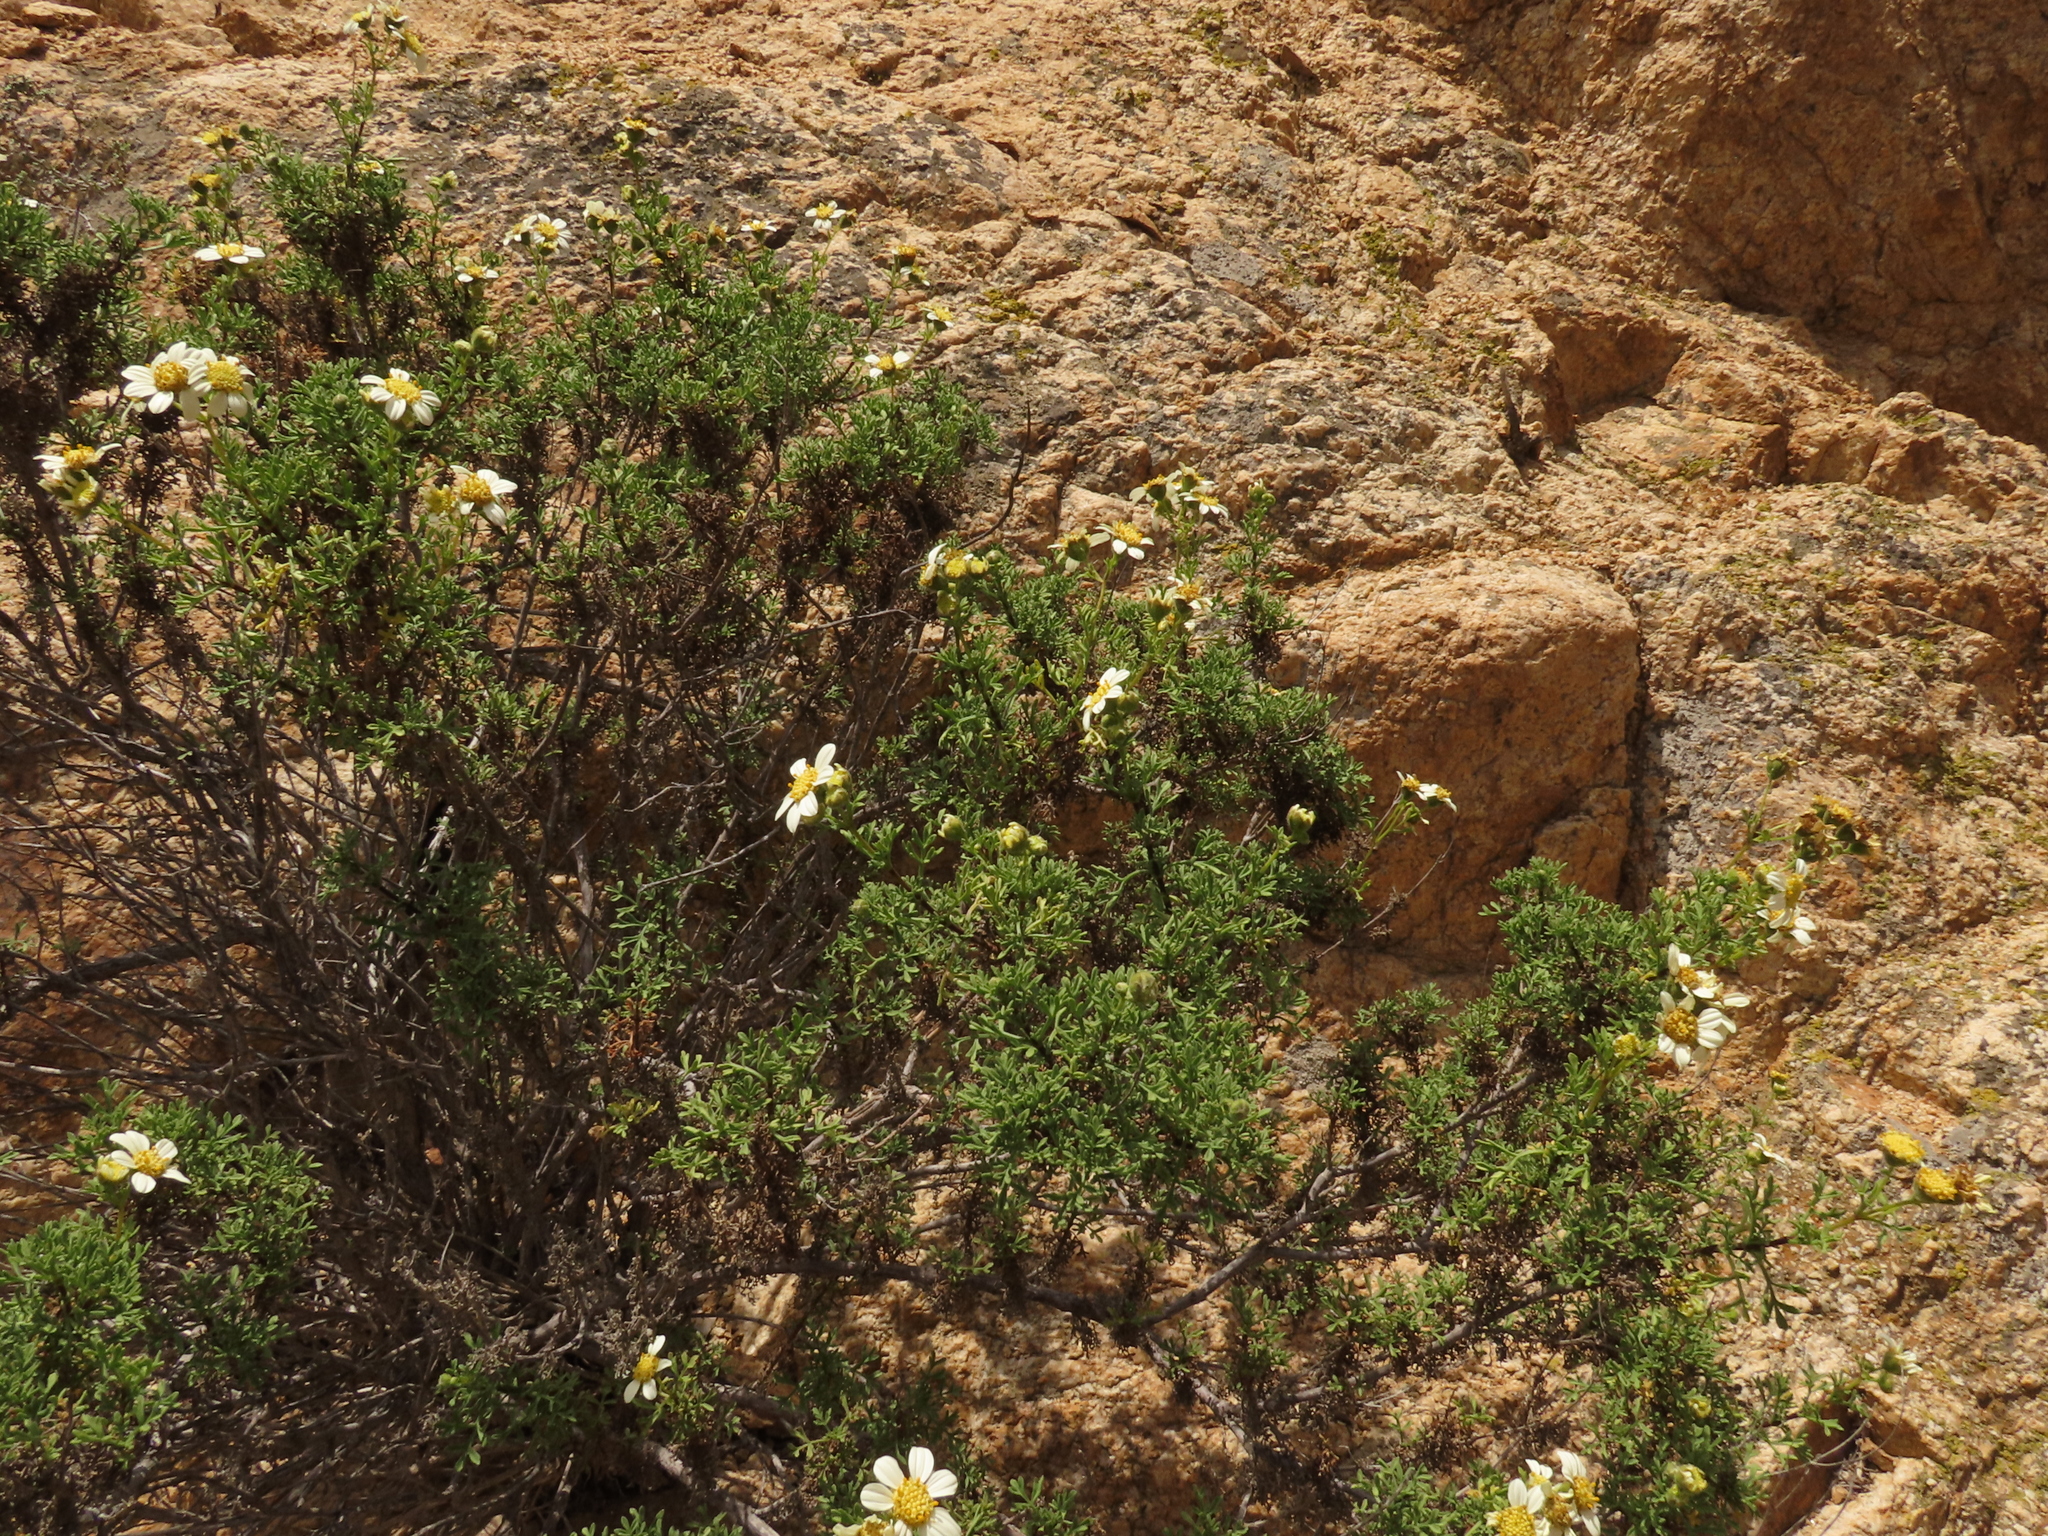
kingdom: Plantae
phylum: Tracheophyta
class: Magnoliopsida
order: Asterales
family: Asteraceae
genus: Bahia
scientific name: Bahia ambrosioides
